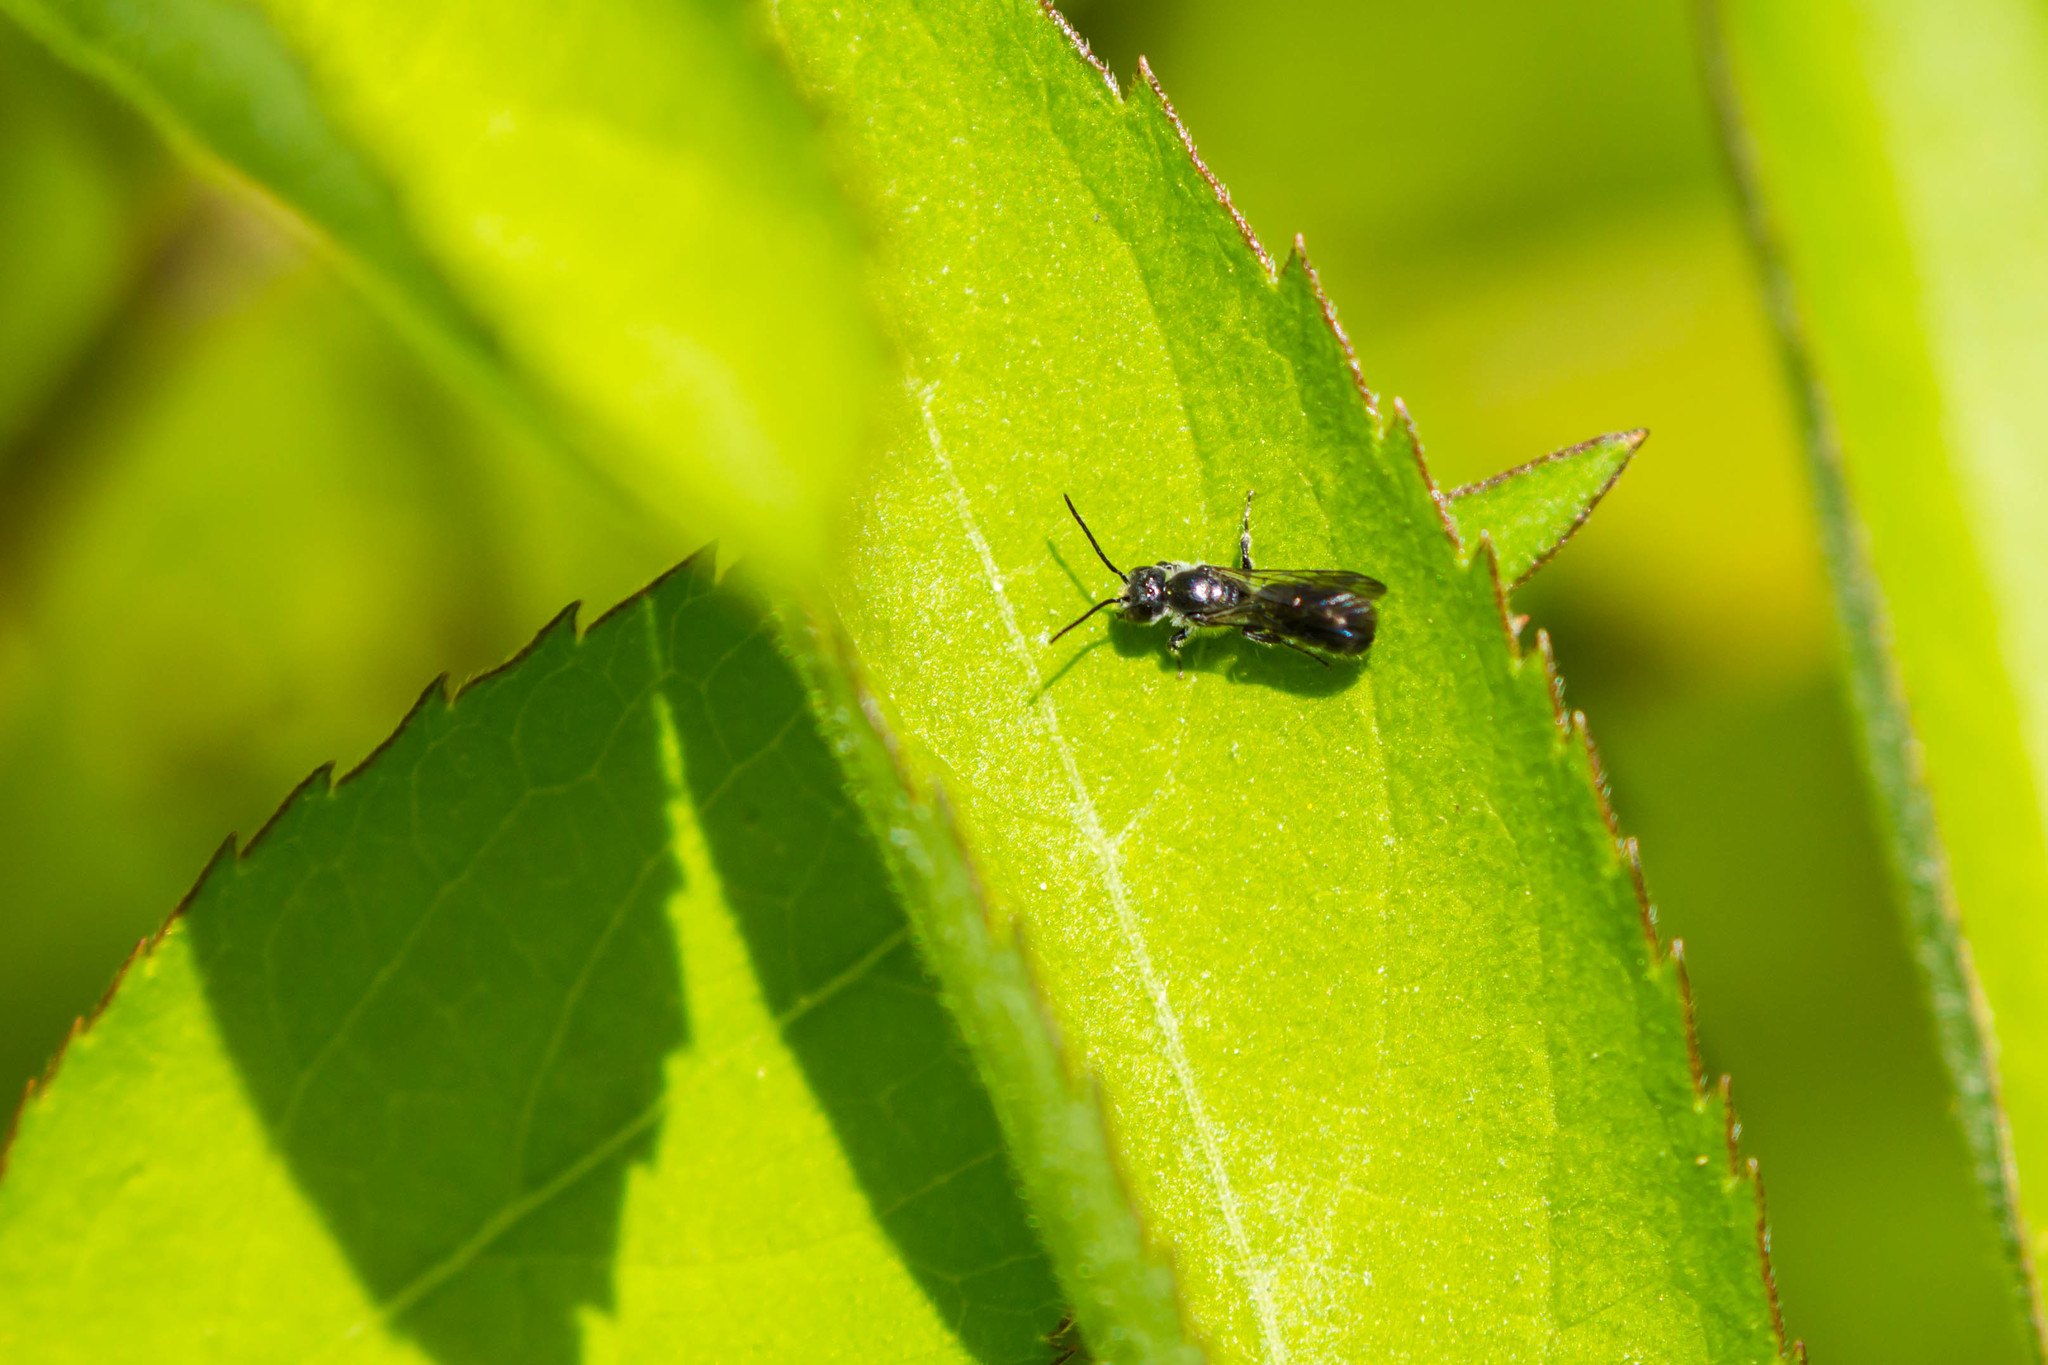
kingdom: Animalia
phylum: Arthropoda
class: Insecta
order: Hymenoptera
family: Megachilidae
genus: Chelostoma
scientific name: Chelostoma philadelphi
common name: Mock-orange scissor bee
